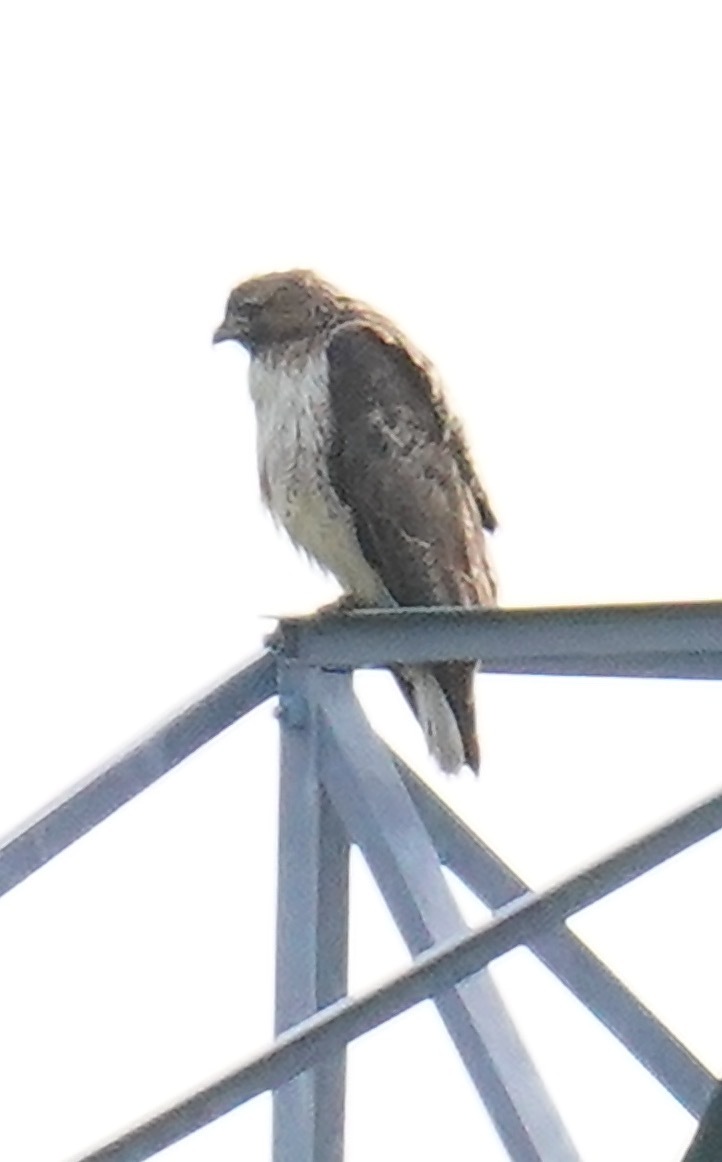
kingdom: Animalia
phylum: Chordata
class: Aves
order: Accipitriformes
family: Accipitridae
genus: Buteo
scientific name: Buteo jamaicensis
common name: Red-tailed hawk
